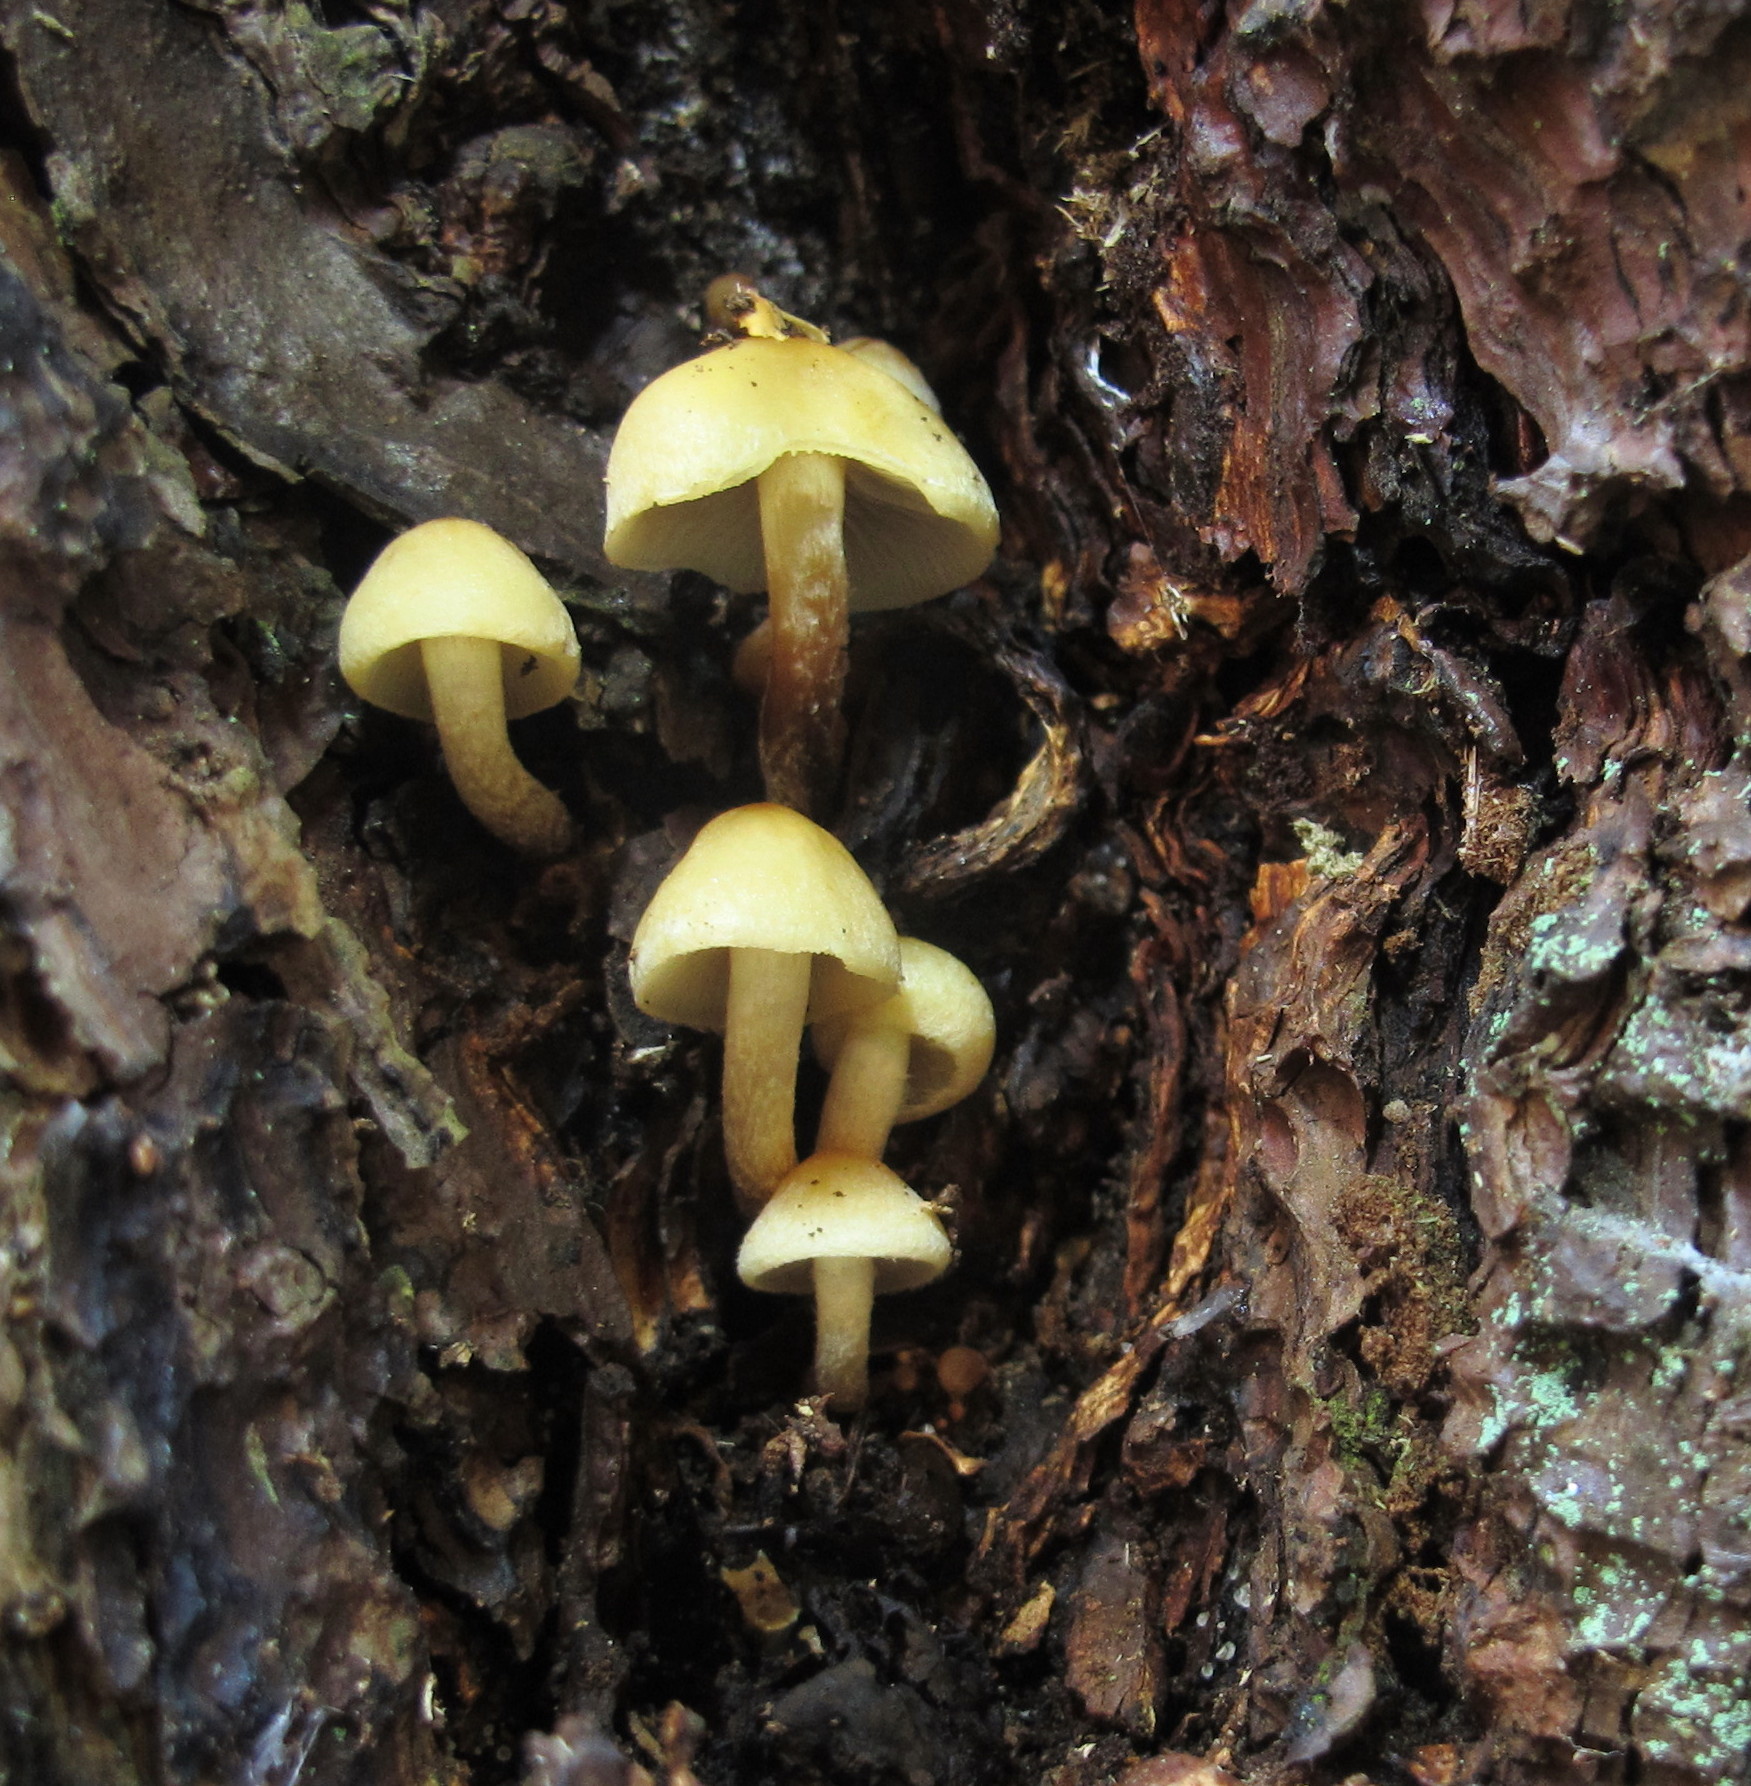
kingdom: Fungi
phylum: Basidiomycota
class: Agaricomycetes
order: Agaricales
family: Strophariaceae
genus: Hypholoma
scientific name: Hypholoma capnoides
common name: Conifer tuft
